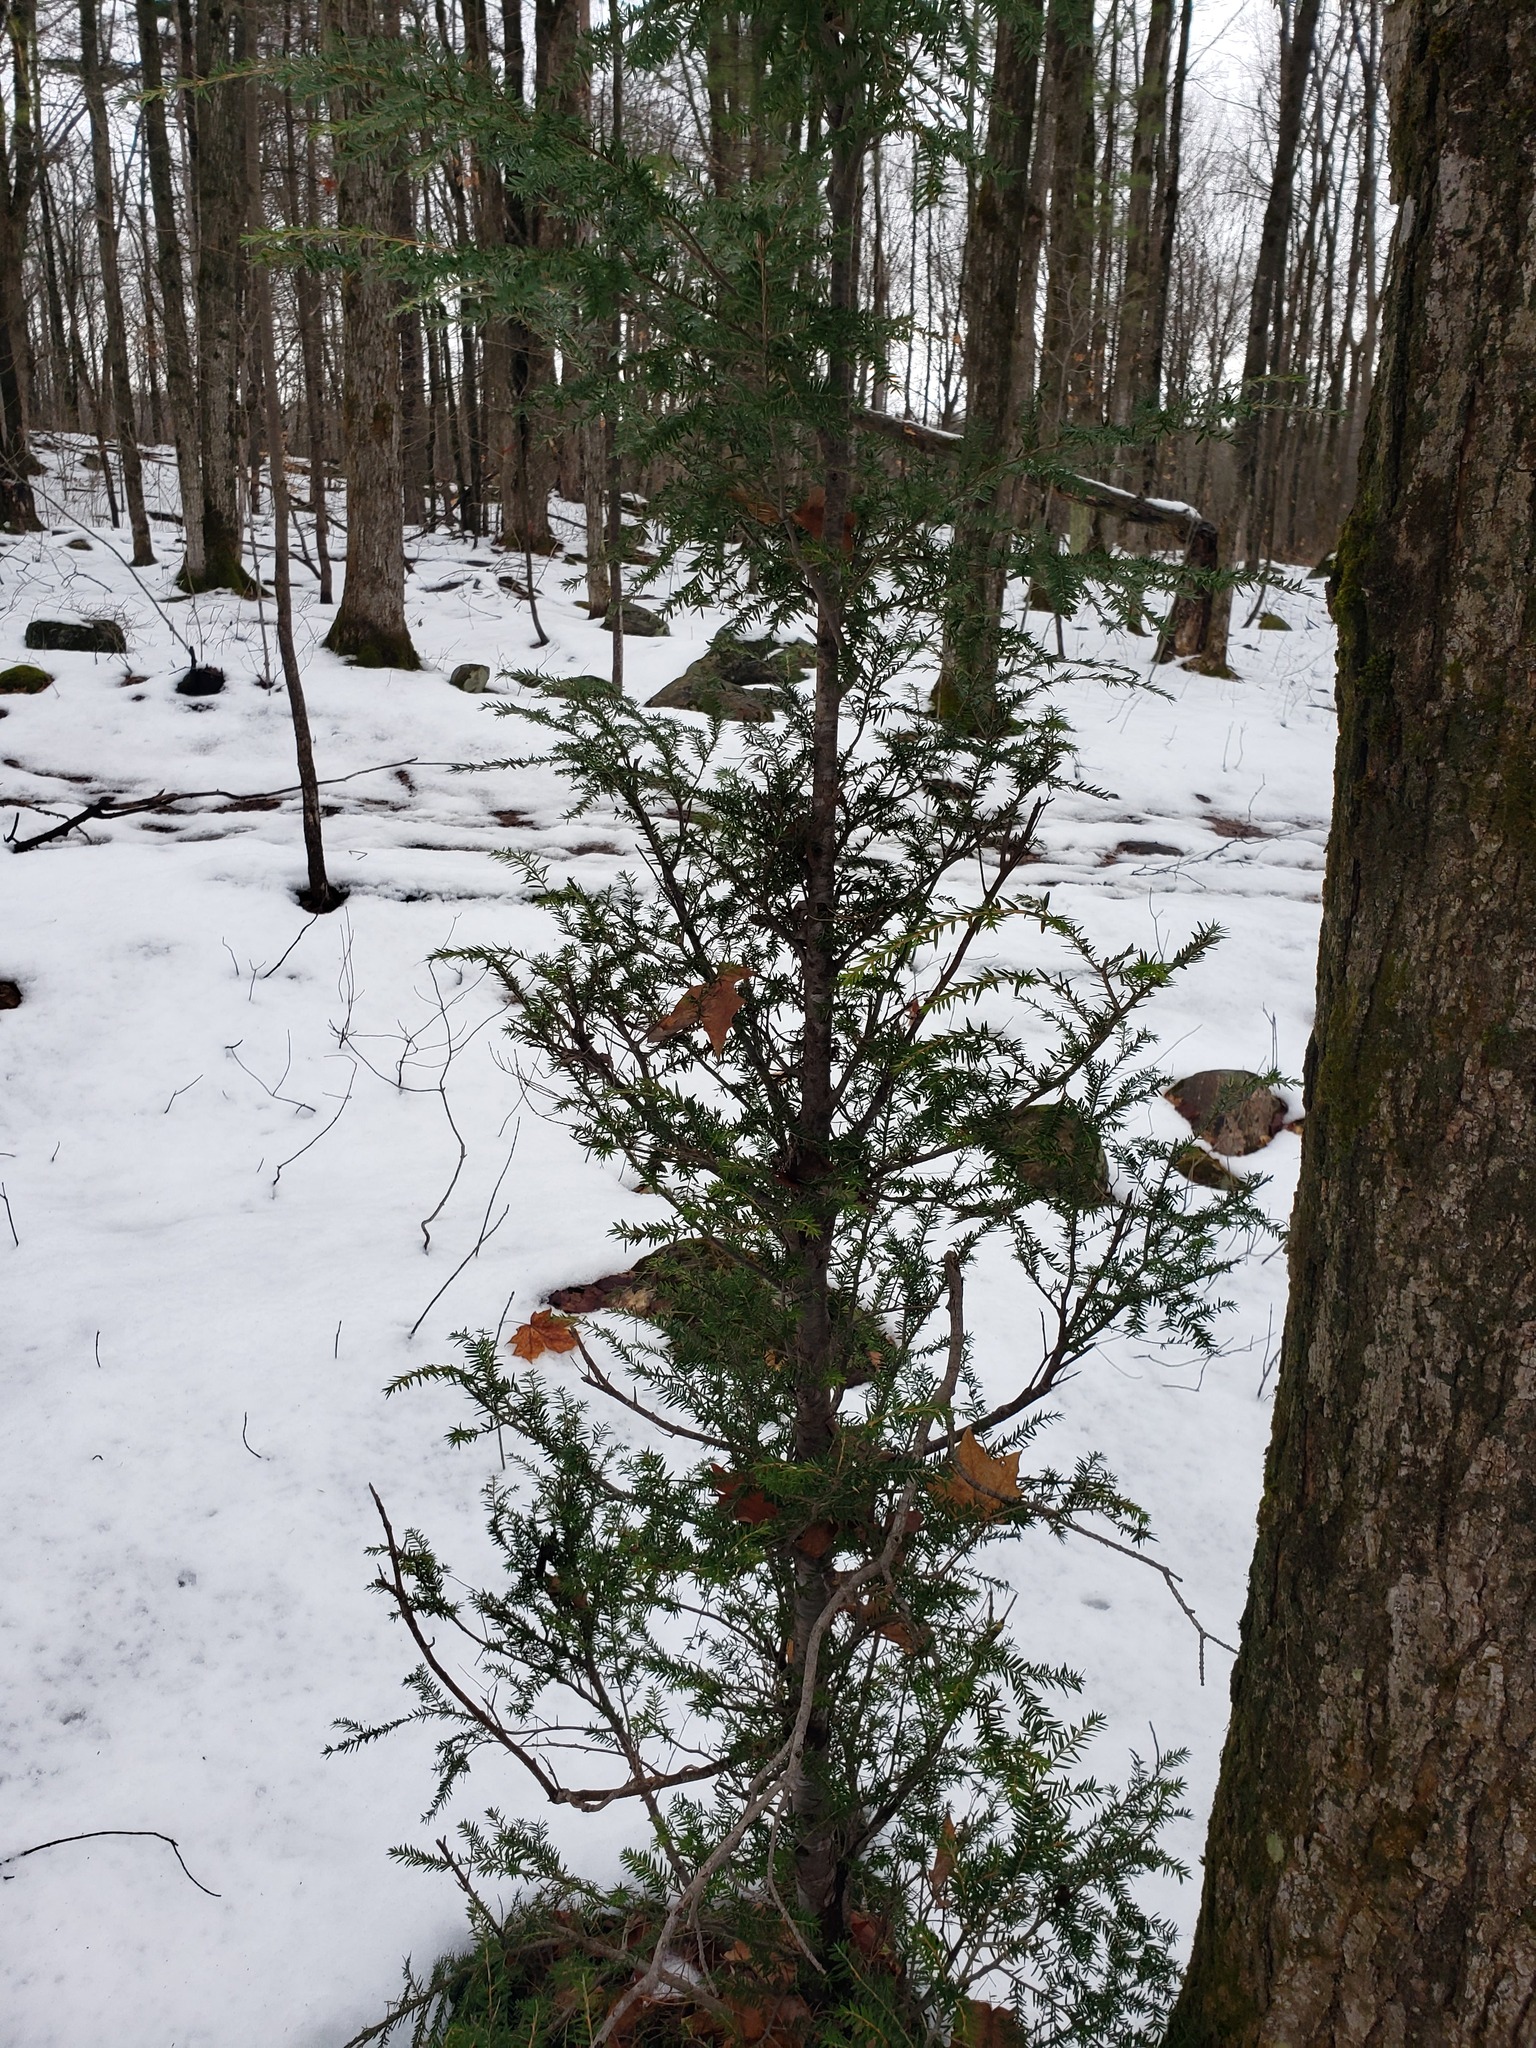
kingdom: Plantae
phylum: Tracheophyta
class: Pinopsida
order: Pinales
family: Pinaceae
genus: Tsuga
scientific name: Tsuga canadensis
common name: Eastern hemlock
